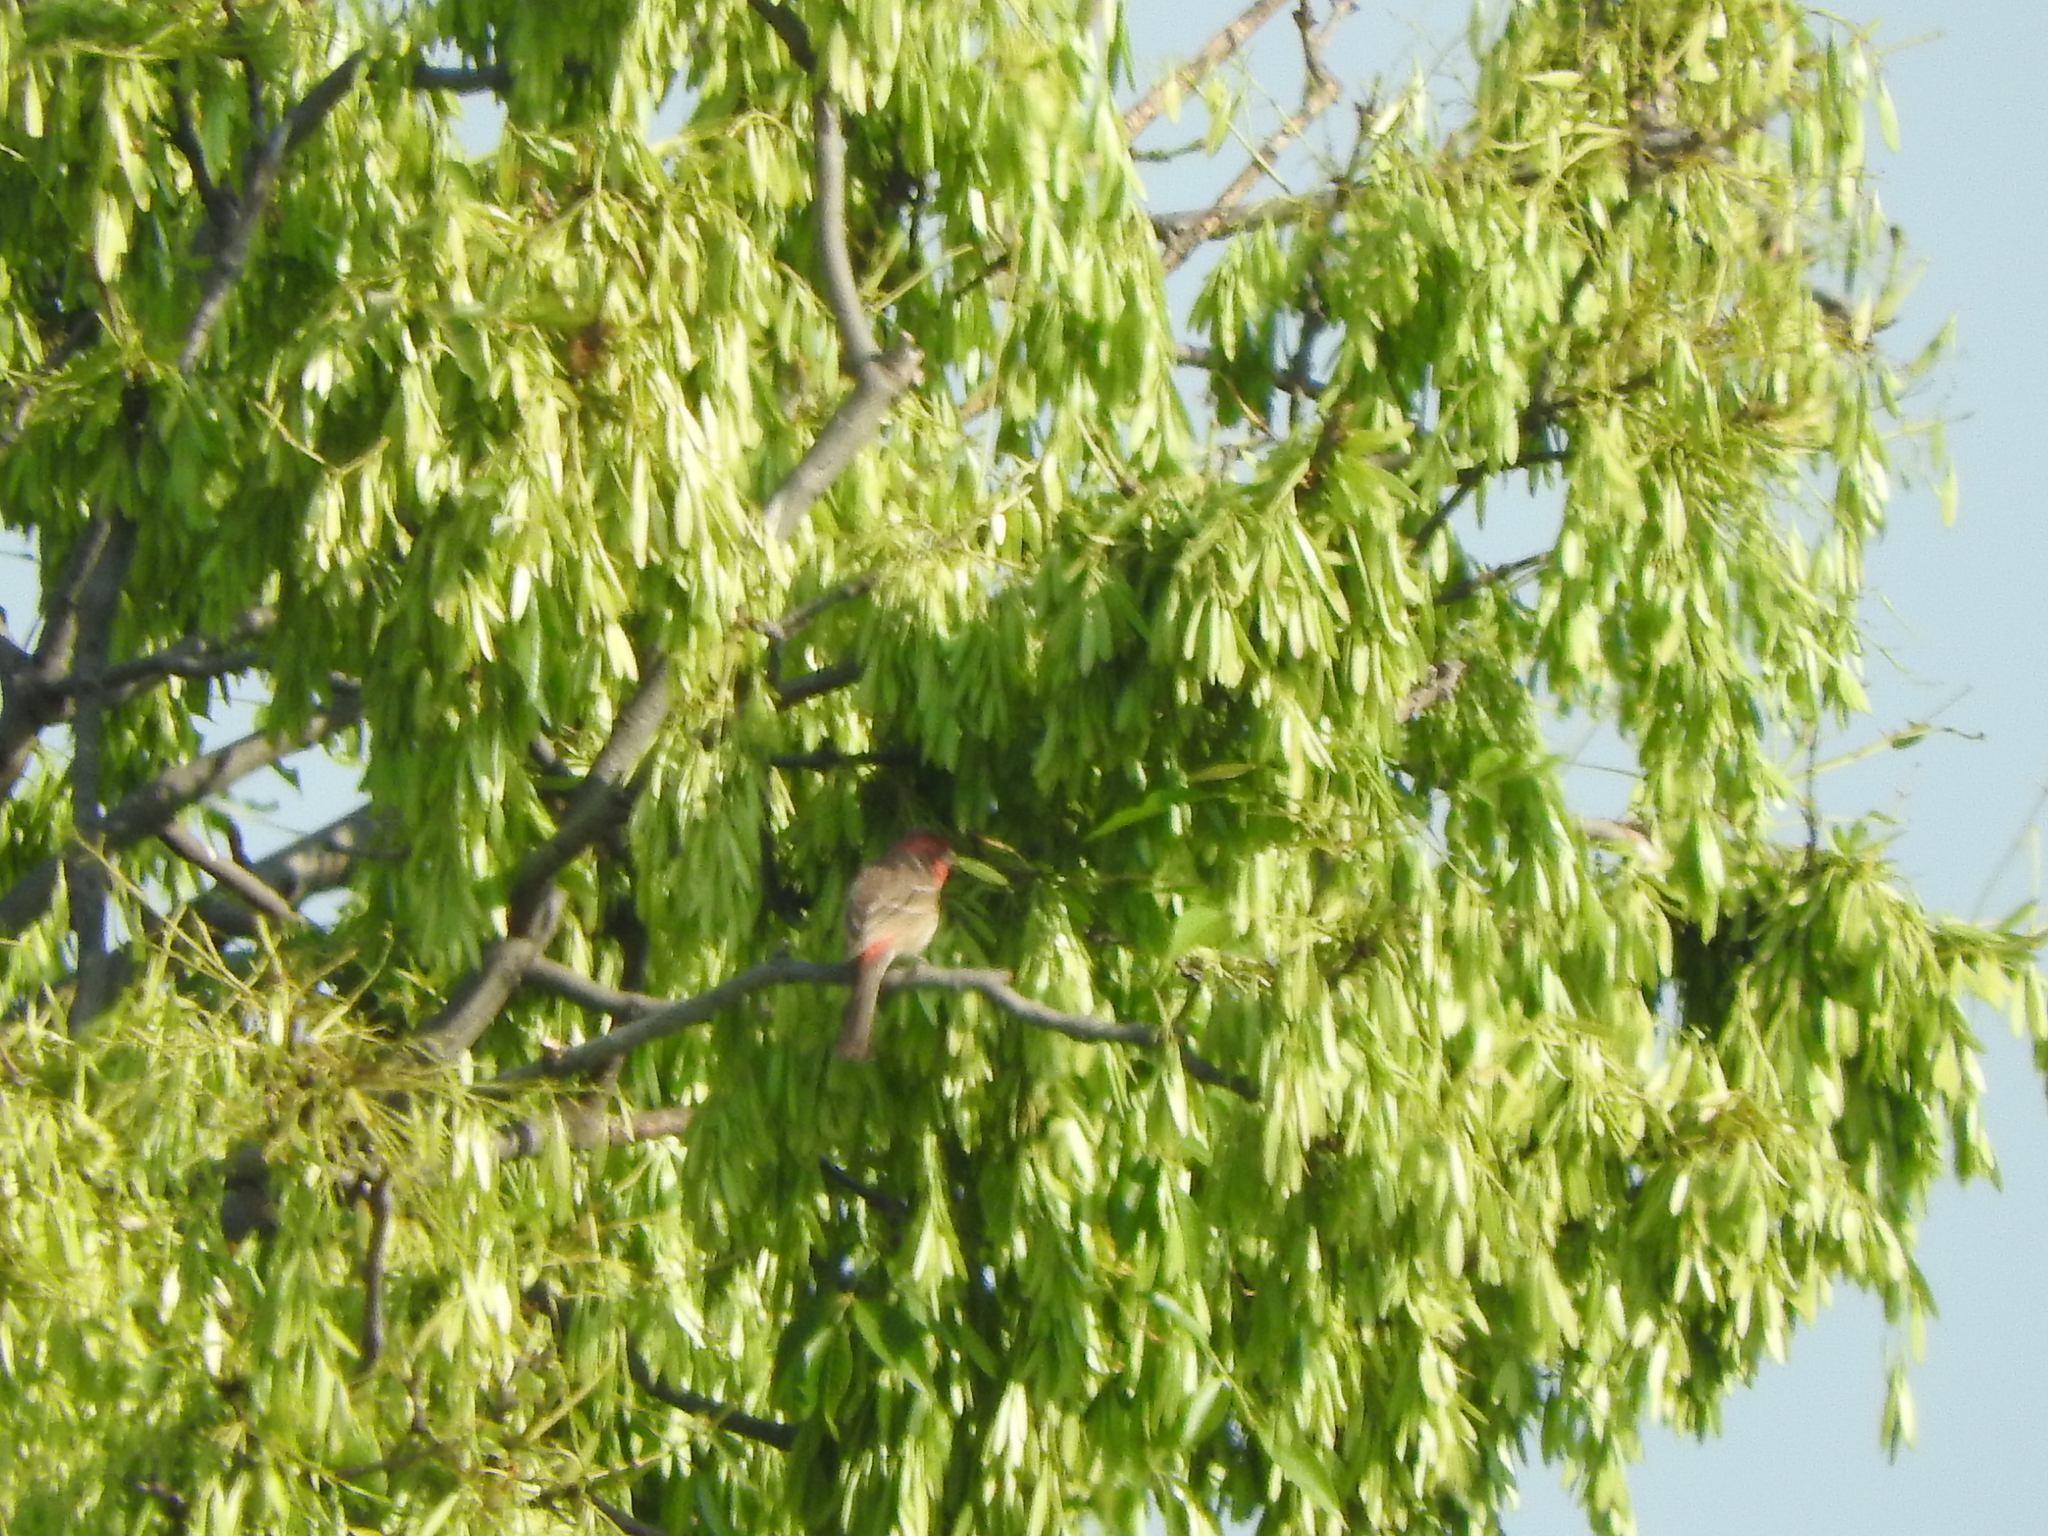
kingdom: Animalia
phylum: Chordata
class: Aves
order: Passeriformes
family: Fringillidae
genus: Haemorhous
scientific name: Haemorhous mexicanus
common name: House finch
